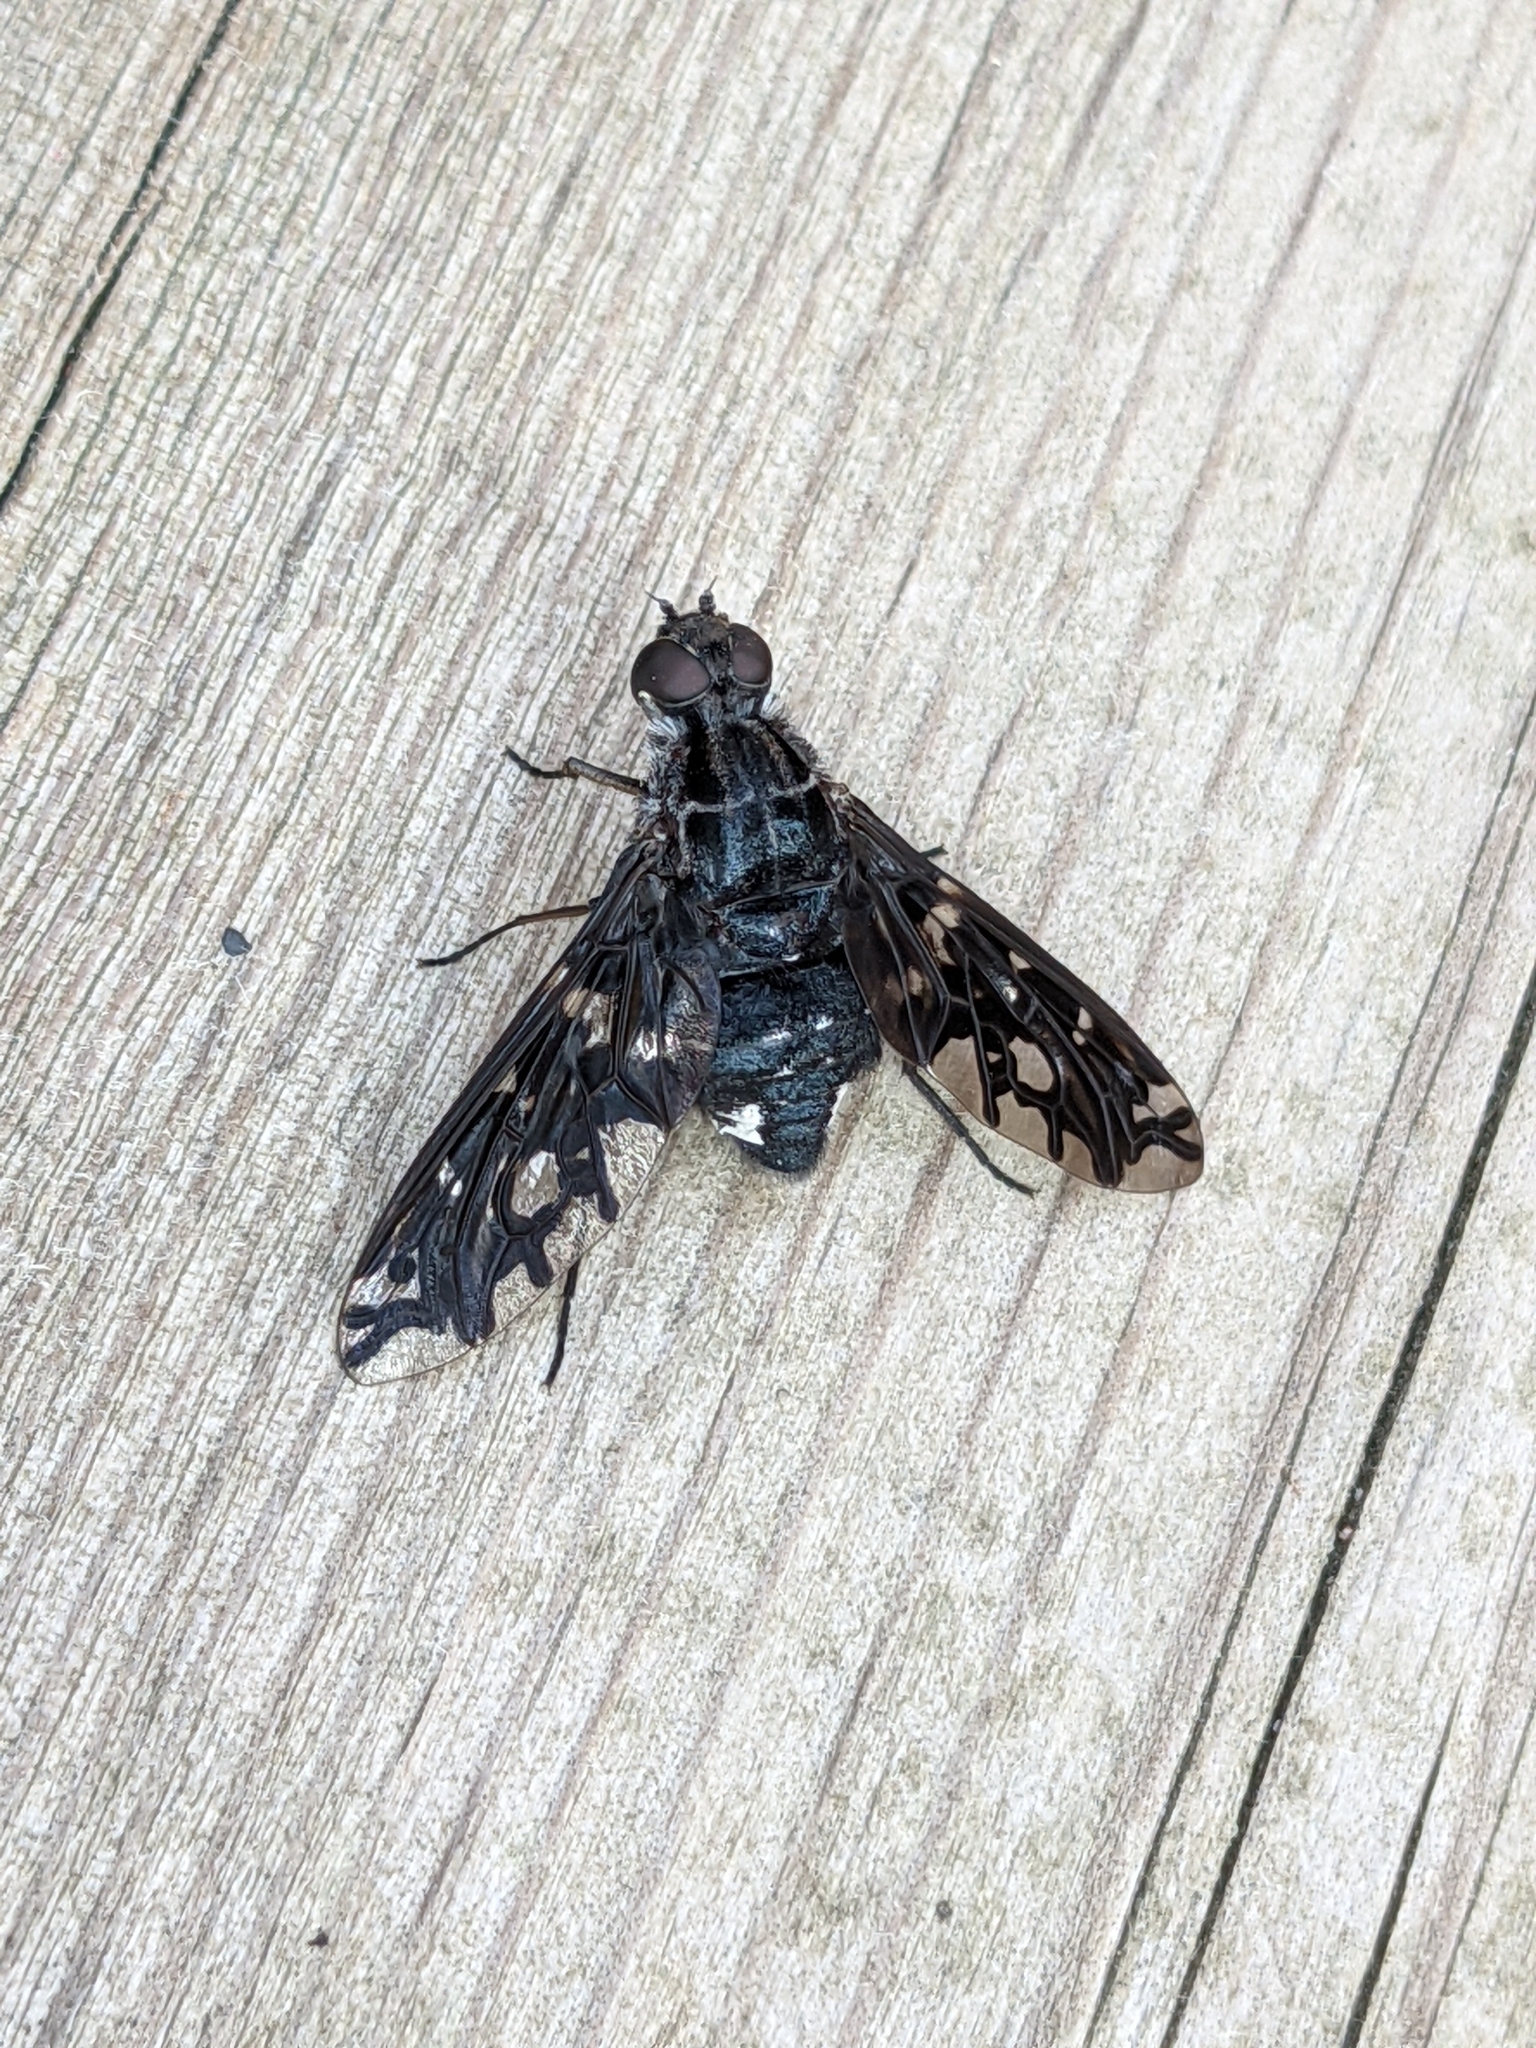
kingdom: Animalia
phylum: Arthropoda
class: Insecta
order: Diptera
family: Bombyliidae
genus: Xenox
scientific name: Xenox tigrinus
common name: Tiger bee fly
